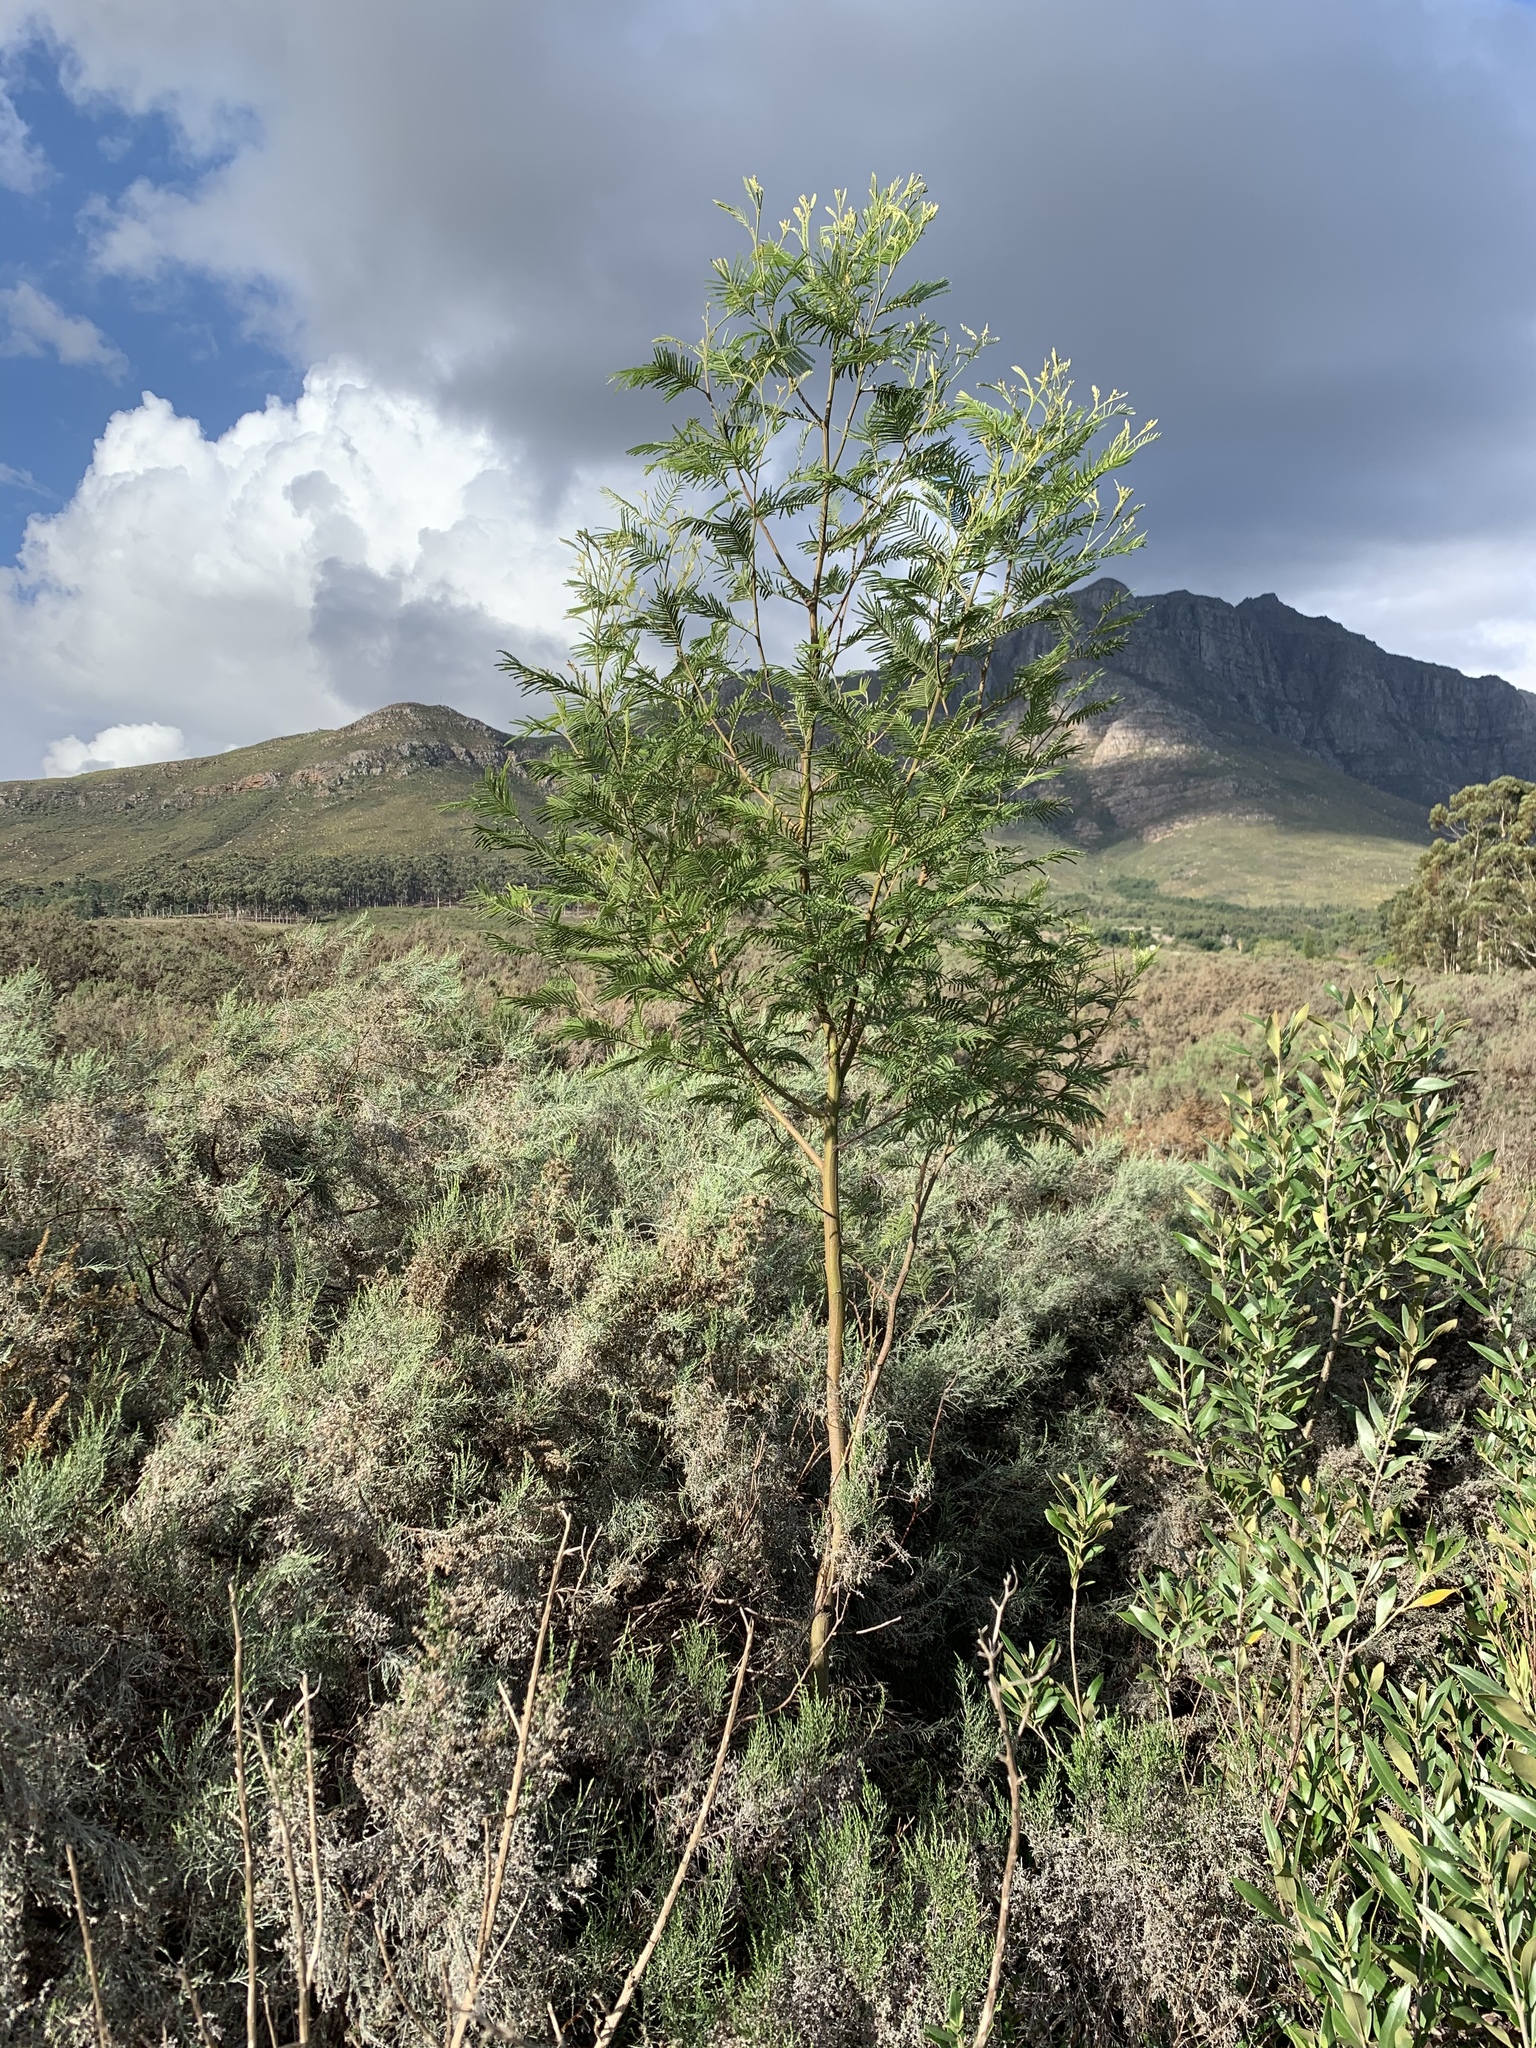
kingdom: Plantae
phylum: Tracheophyta
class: Magnoliopsida
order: Fabales
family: Fabaceae
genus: Acacia
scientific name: Acacia mearnsii
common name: Black wattle
